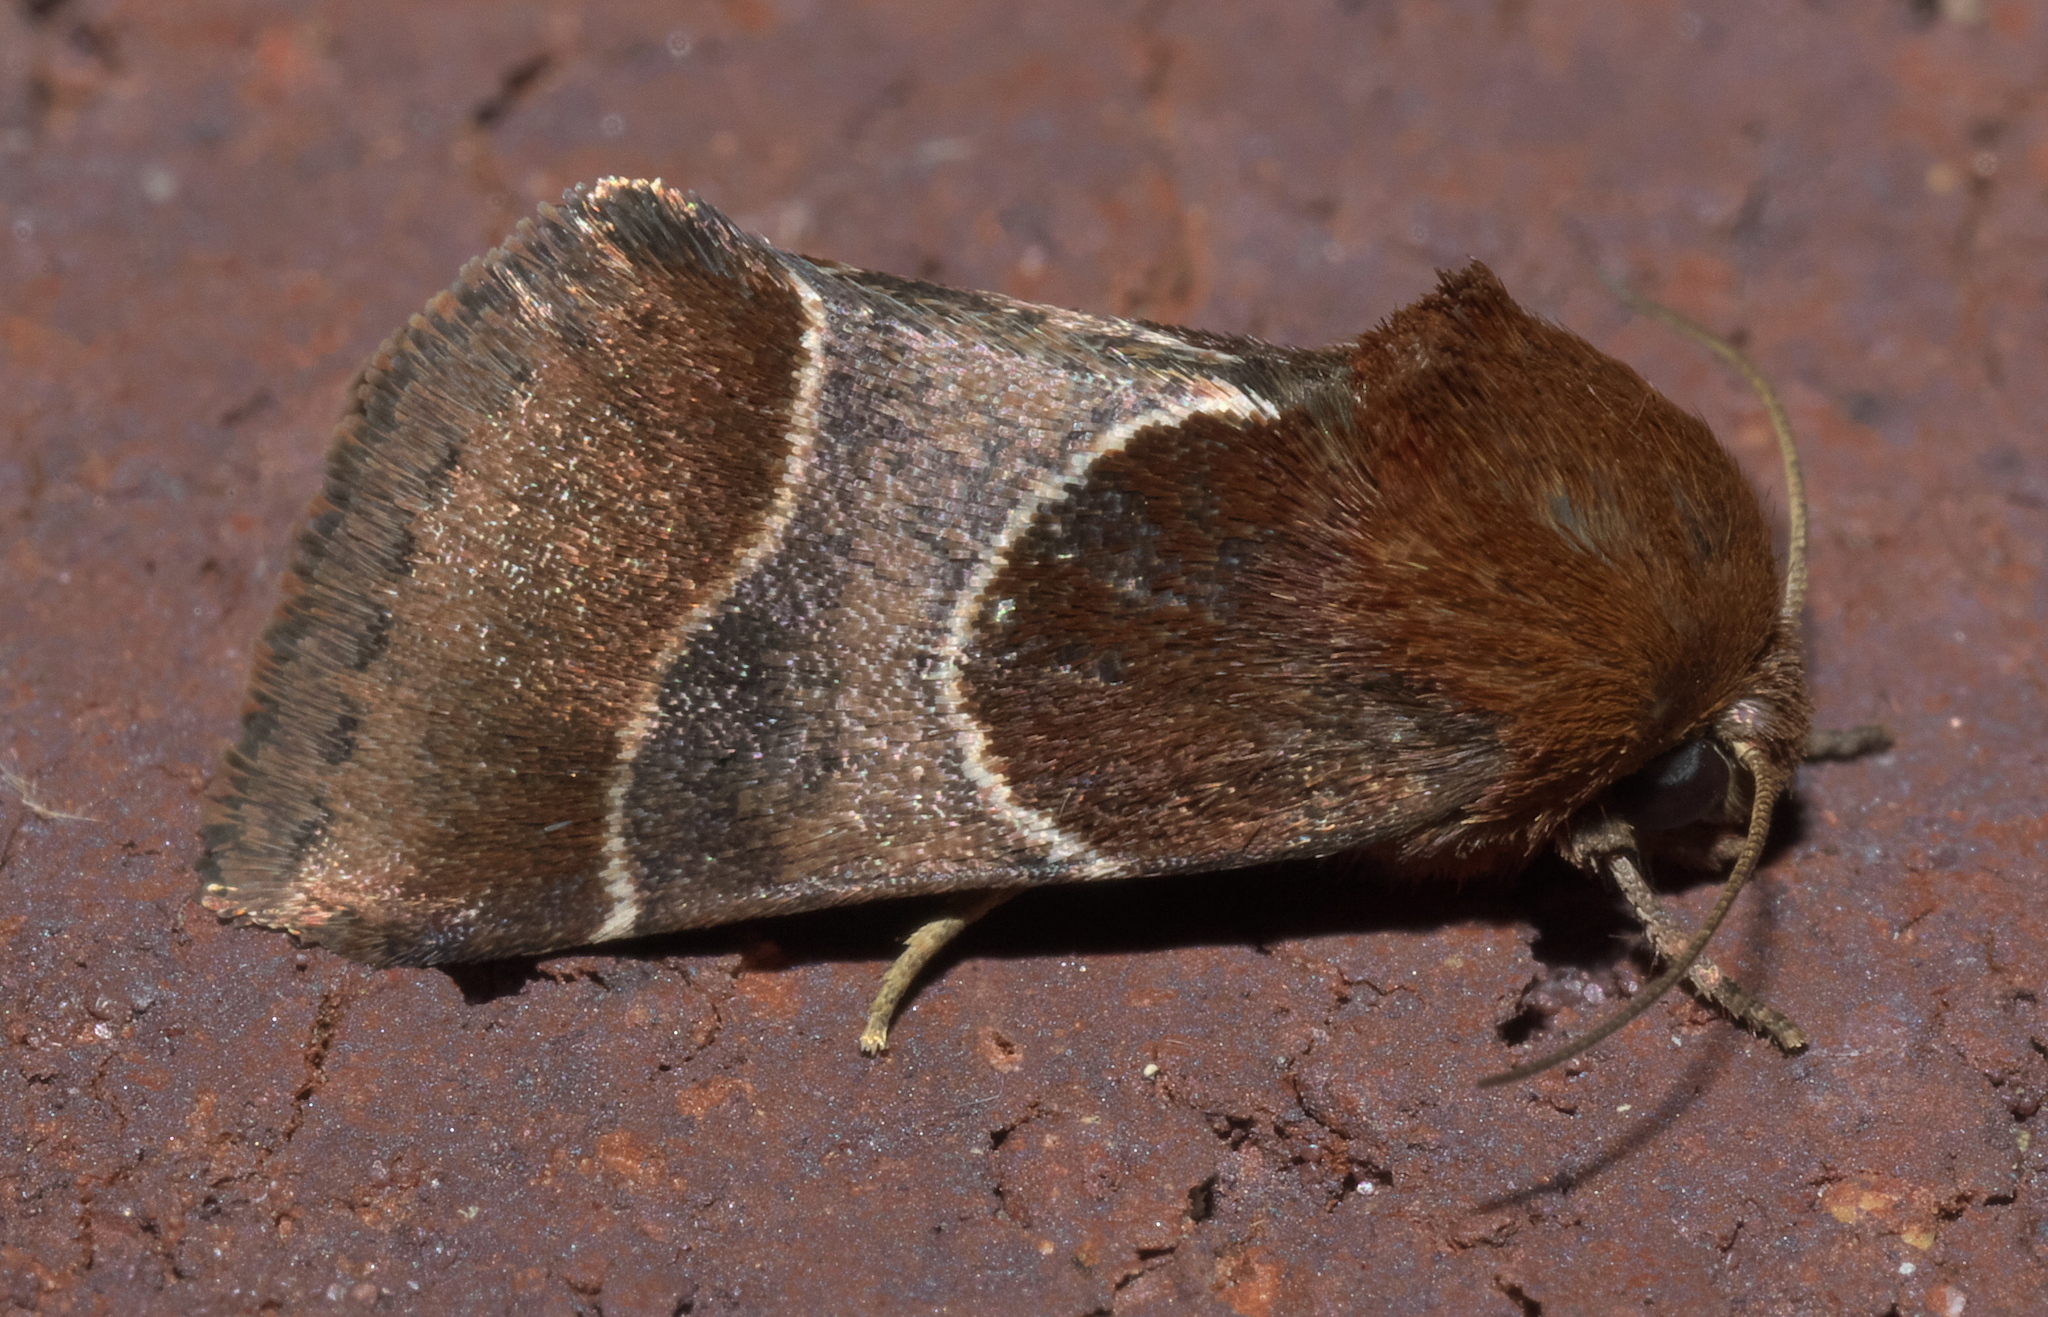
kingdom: Animalia
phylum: Arthropoda
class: Insecta
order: Lepidoptera
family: Noctuidae
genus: Schinia
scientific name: Schinia arcigera
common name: Arcigera flower moth
